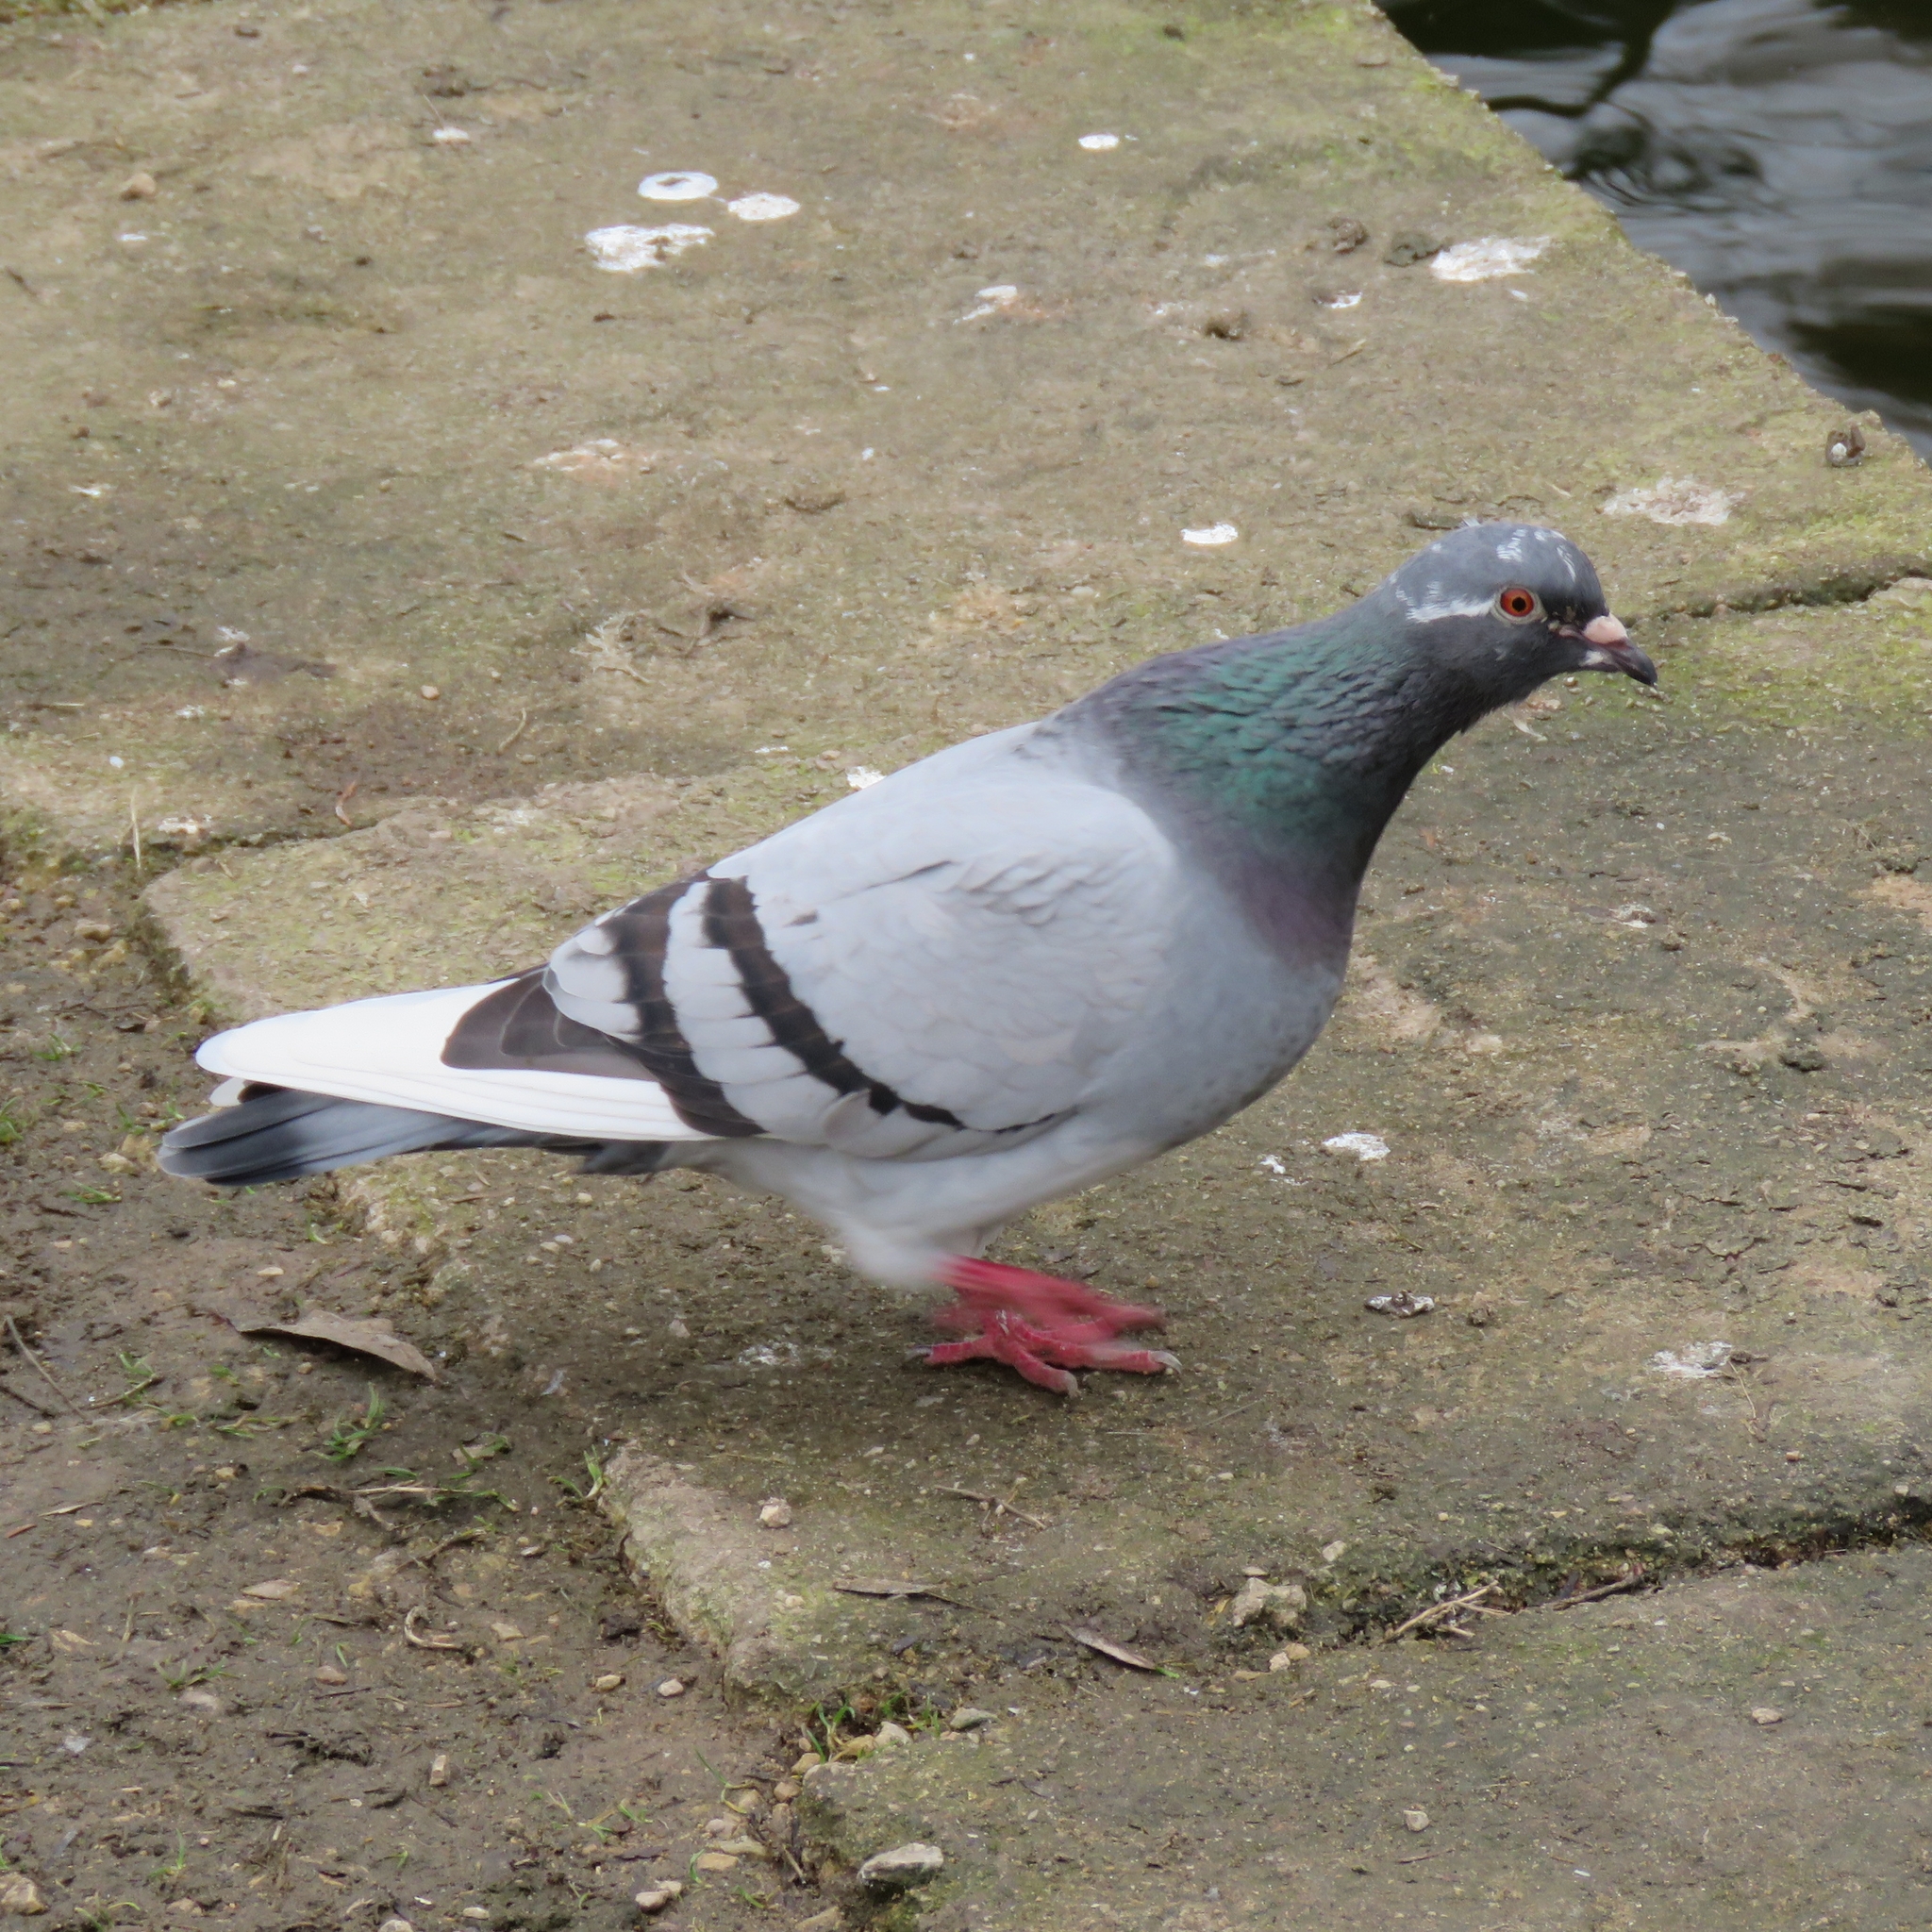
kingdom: Animalia
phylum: Chordata
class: Aves
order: Columbiformes
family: Columbidae
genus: Columba
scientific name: Columba livia
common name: Rock pigeon
